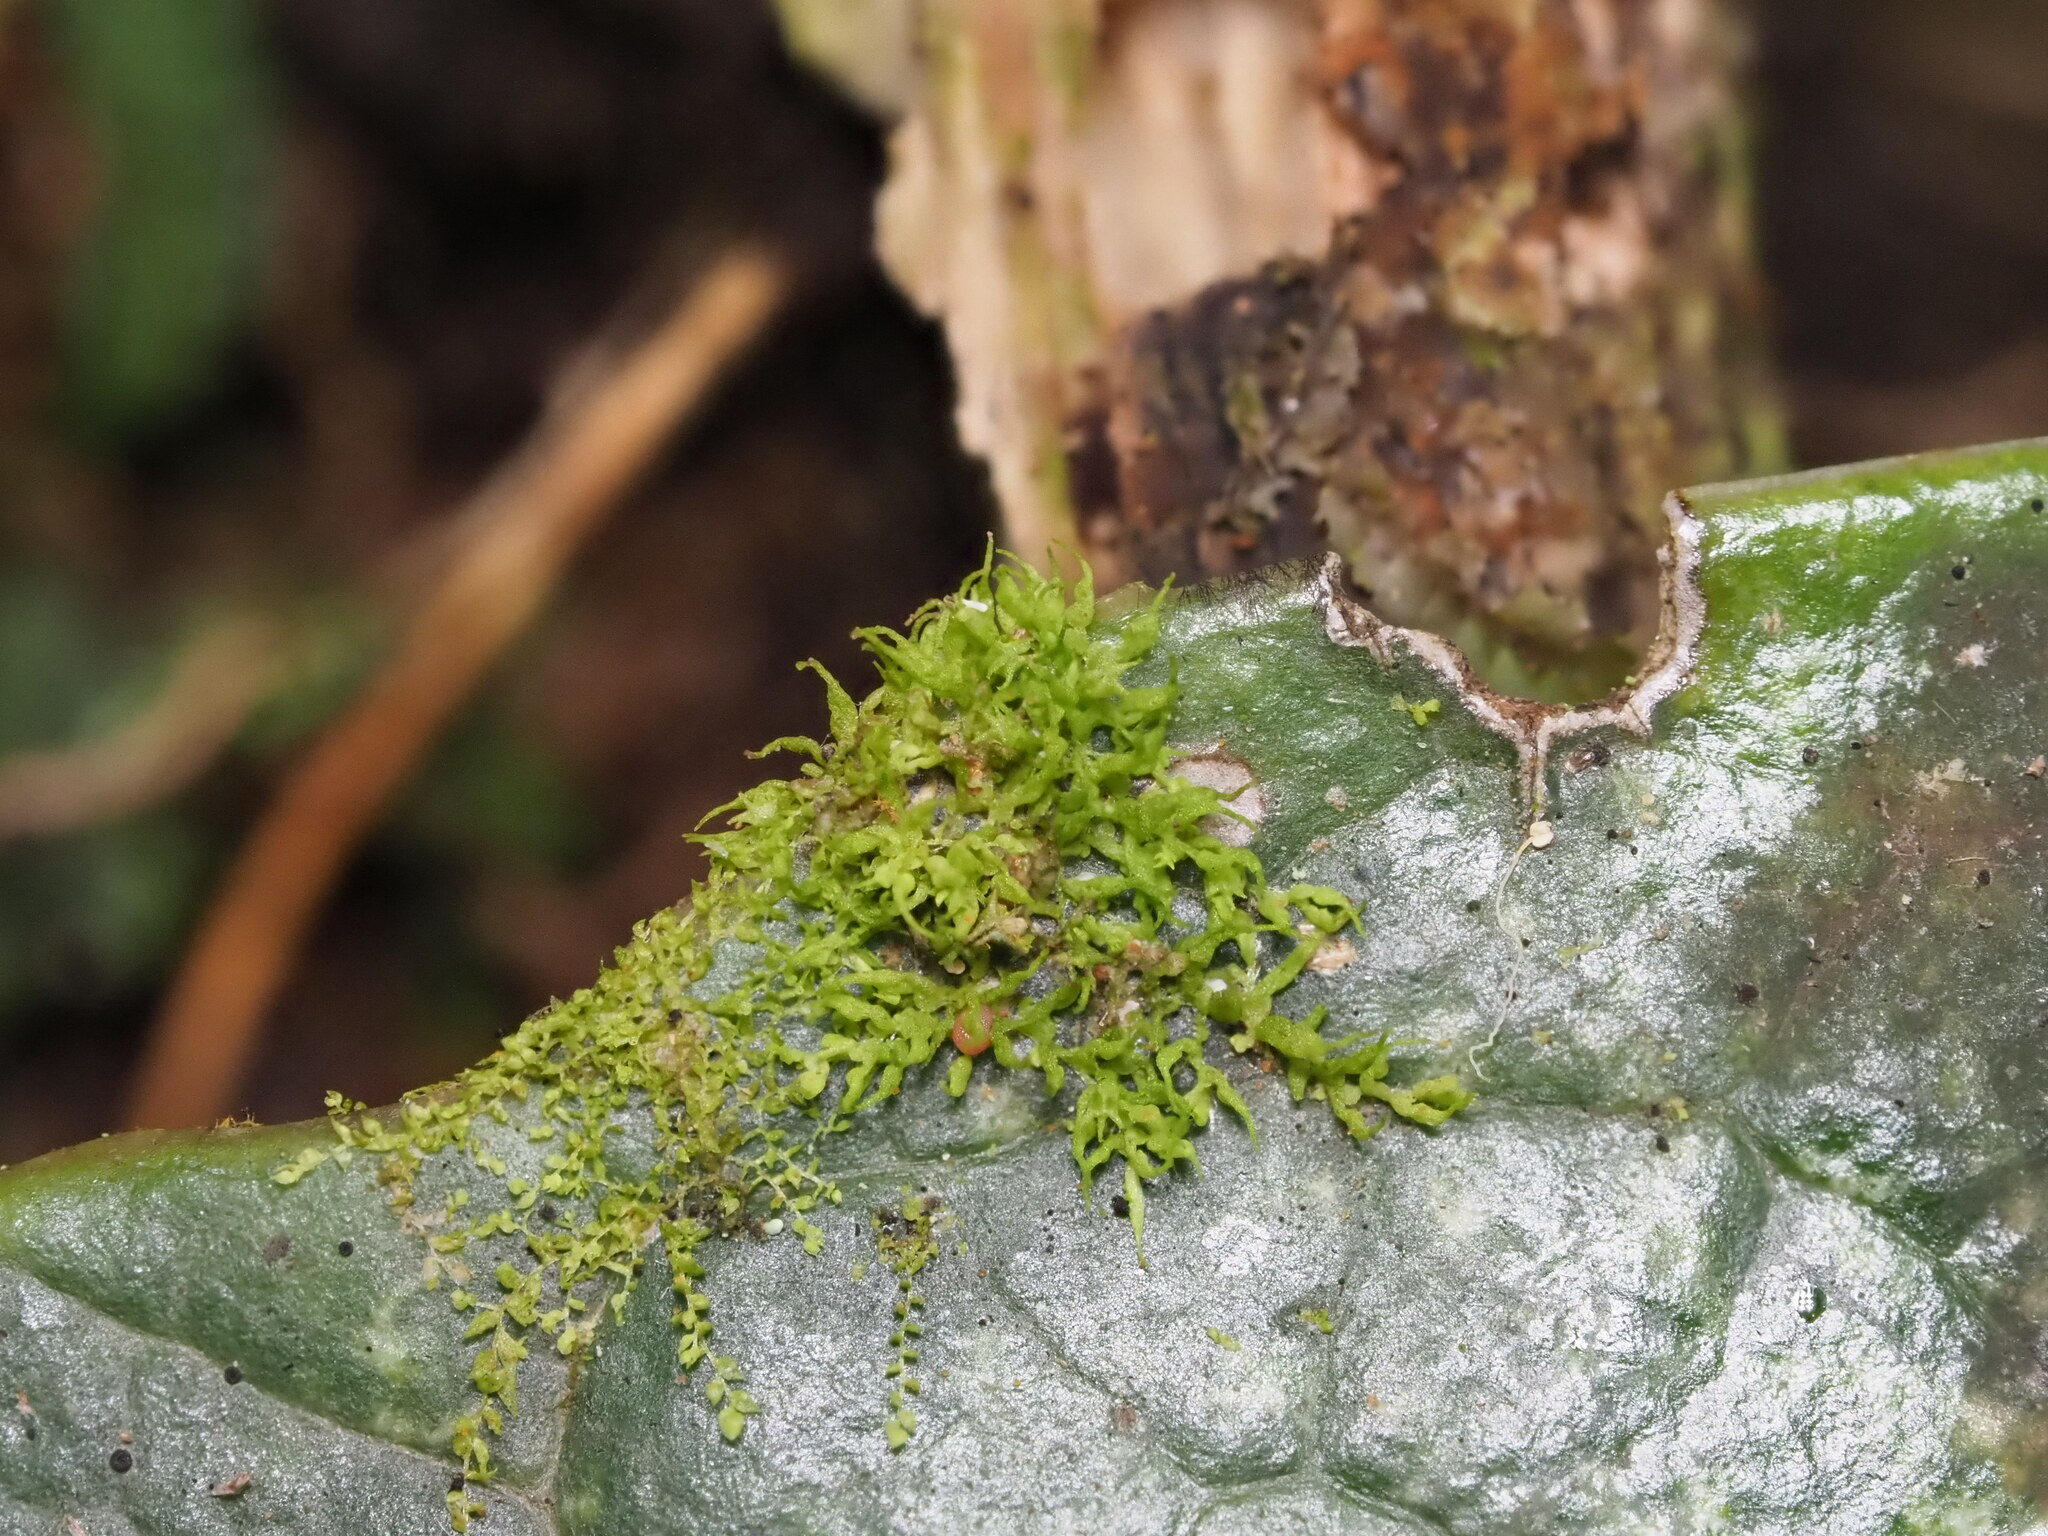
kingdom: Plantae
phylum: Marchantiophyta
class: Jungermanniopsida
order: Porellales
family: Lejeuneaceae
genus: Colura
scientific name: Colura tenuicornis
